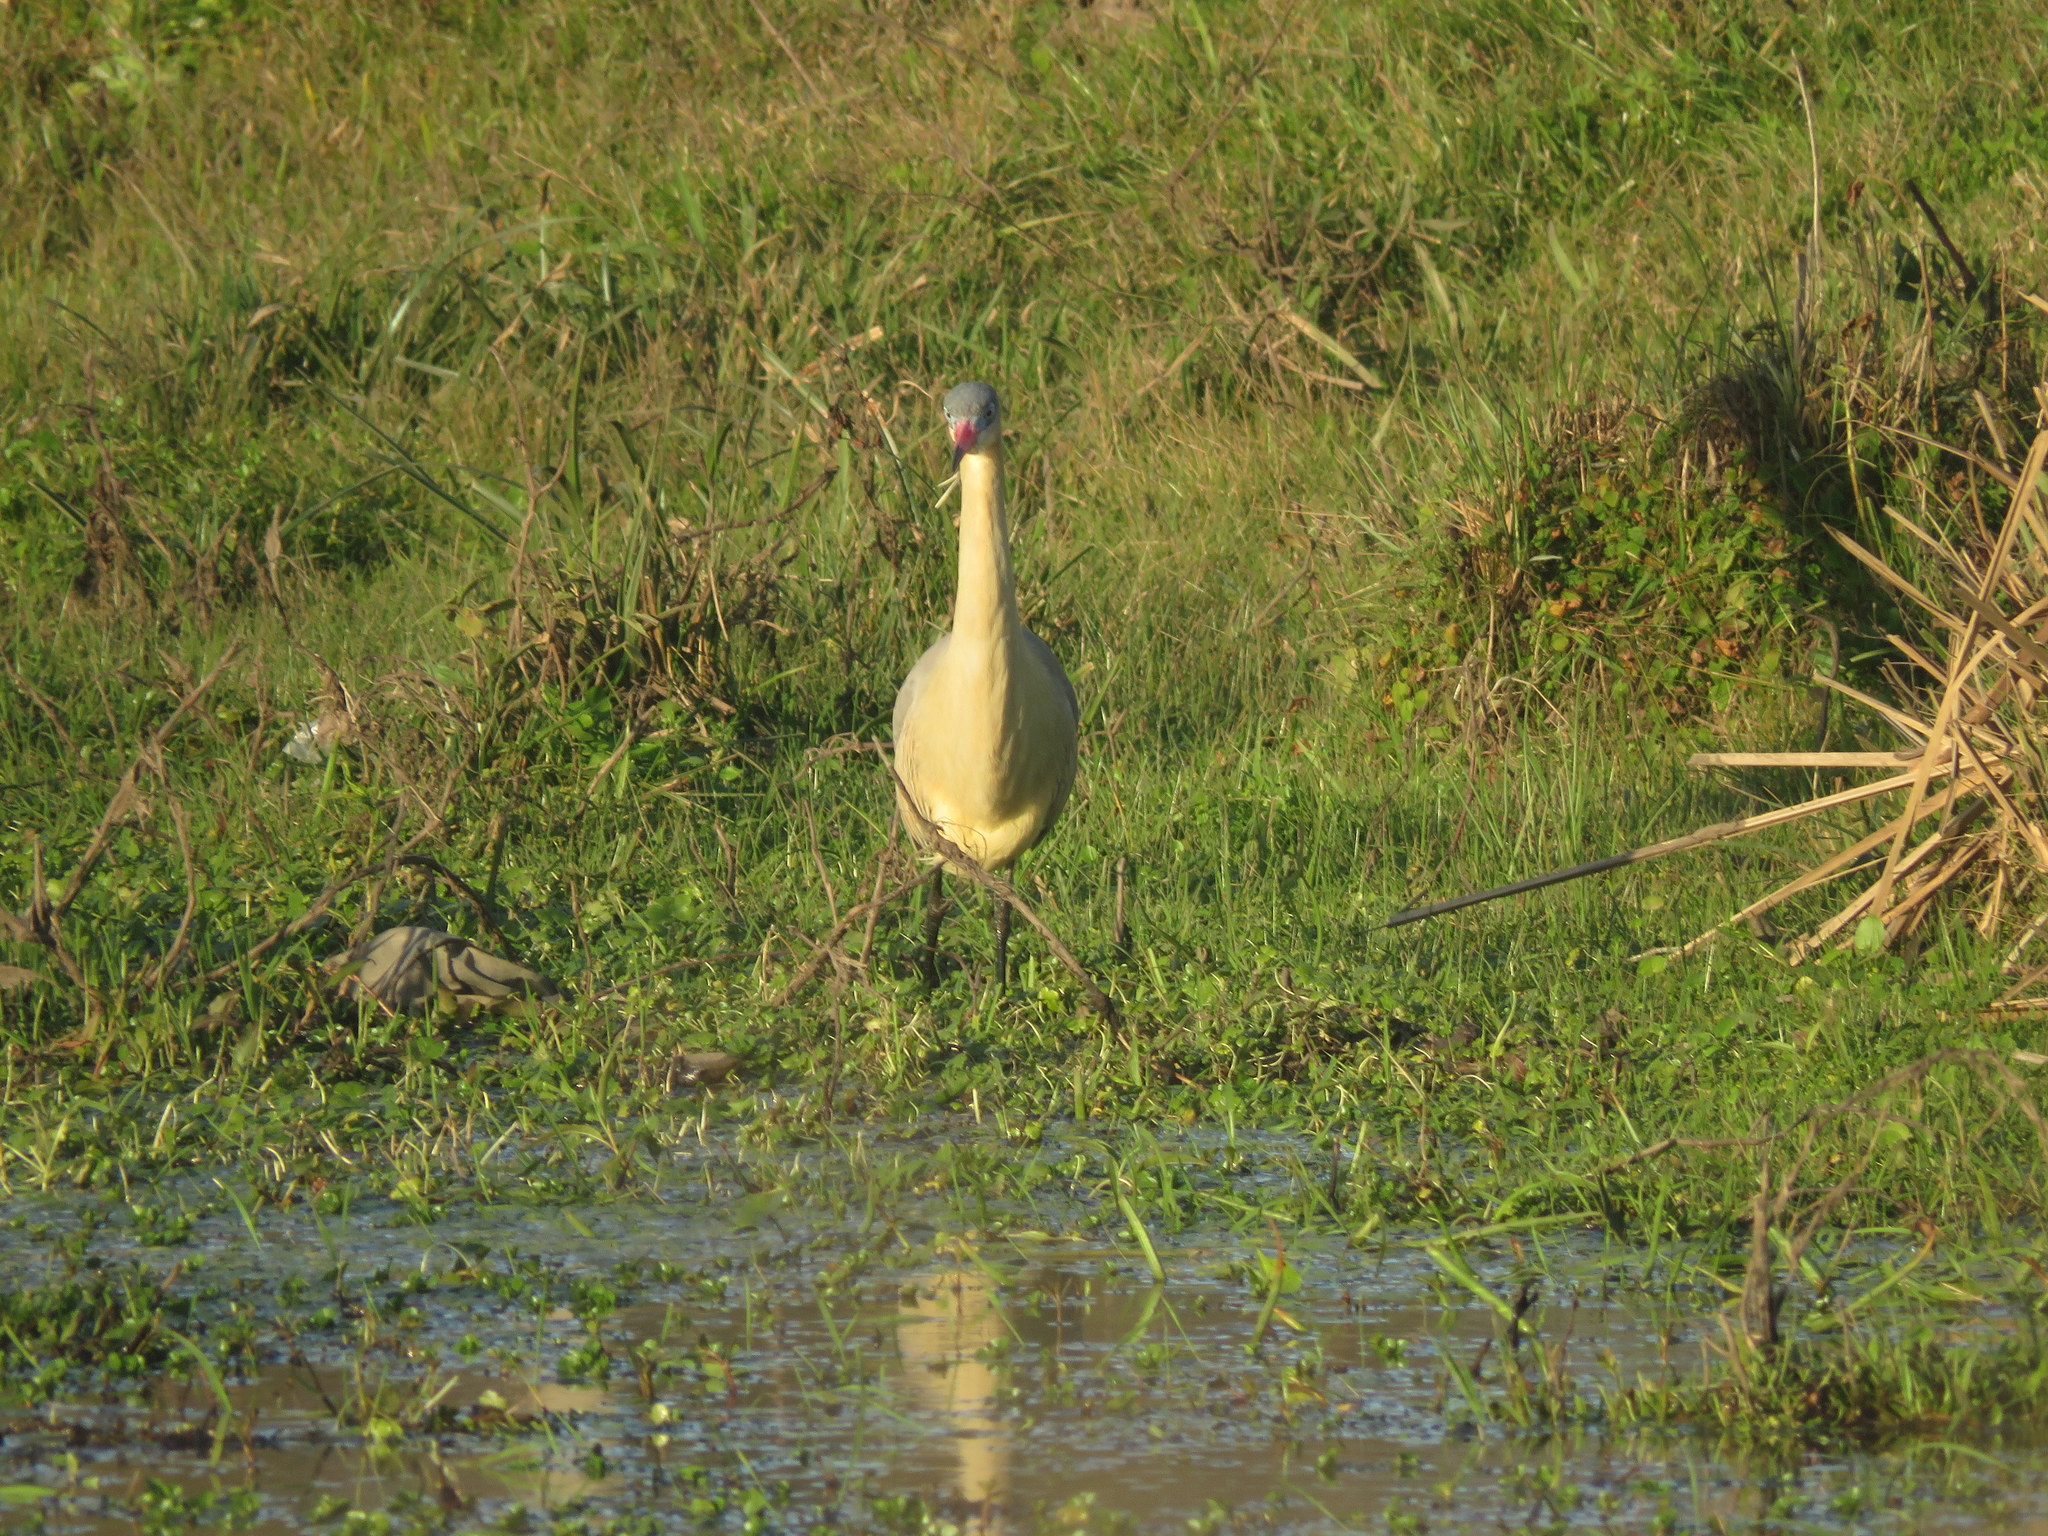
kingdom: Animalia
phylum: Chordata
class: Aves
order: Pelecaniformes
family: Ardeidae
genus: Syrigma
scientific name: Syrigma sibilatrix
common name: Whistling heron
